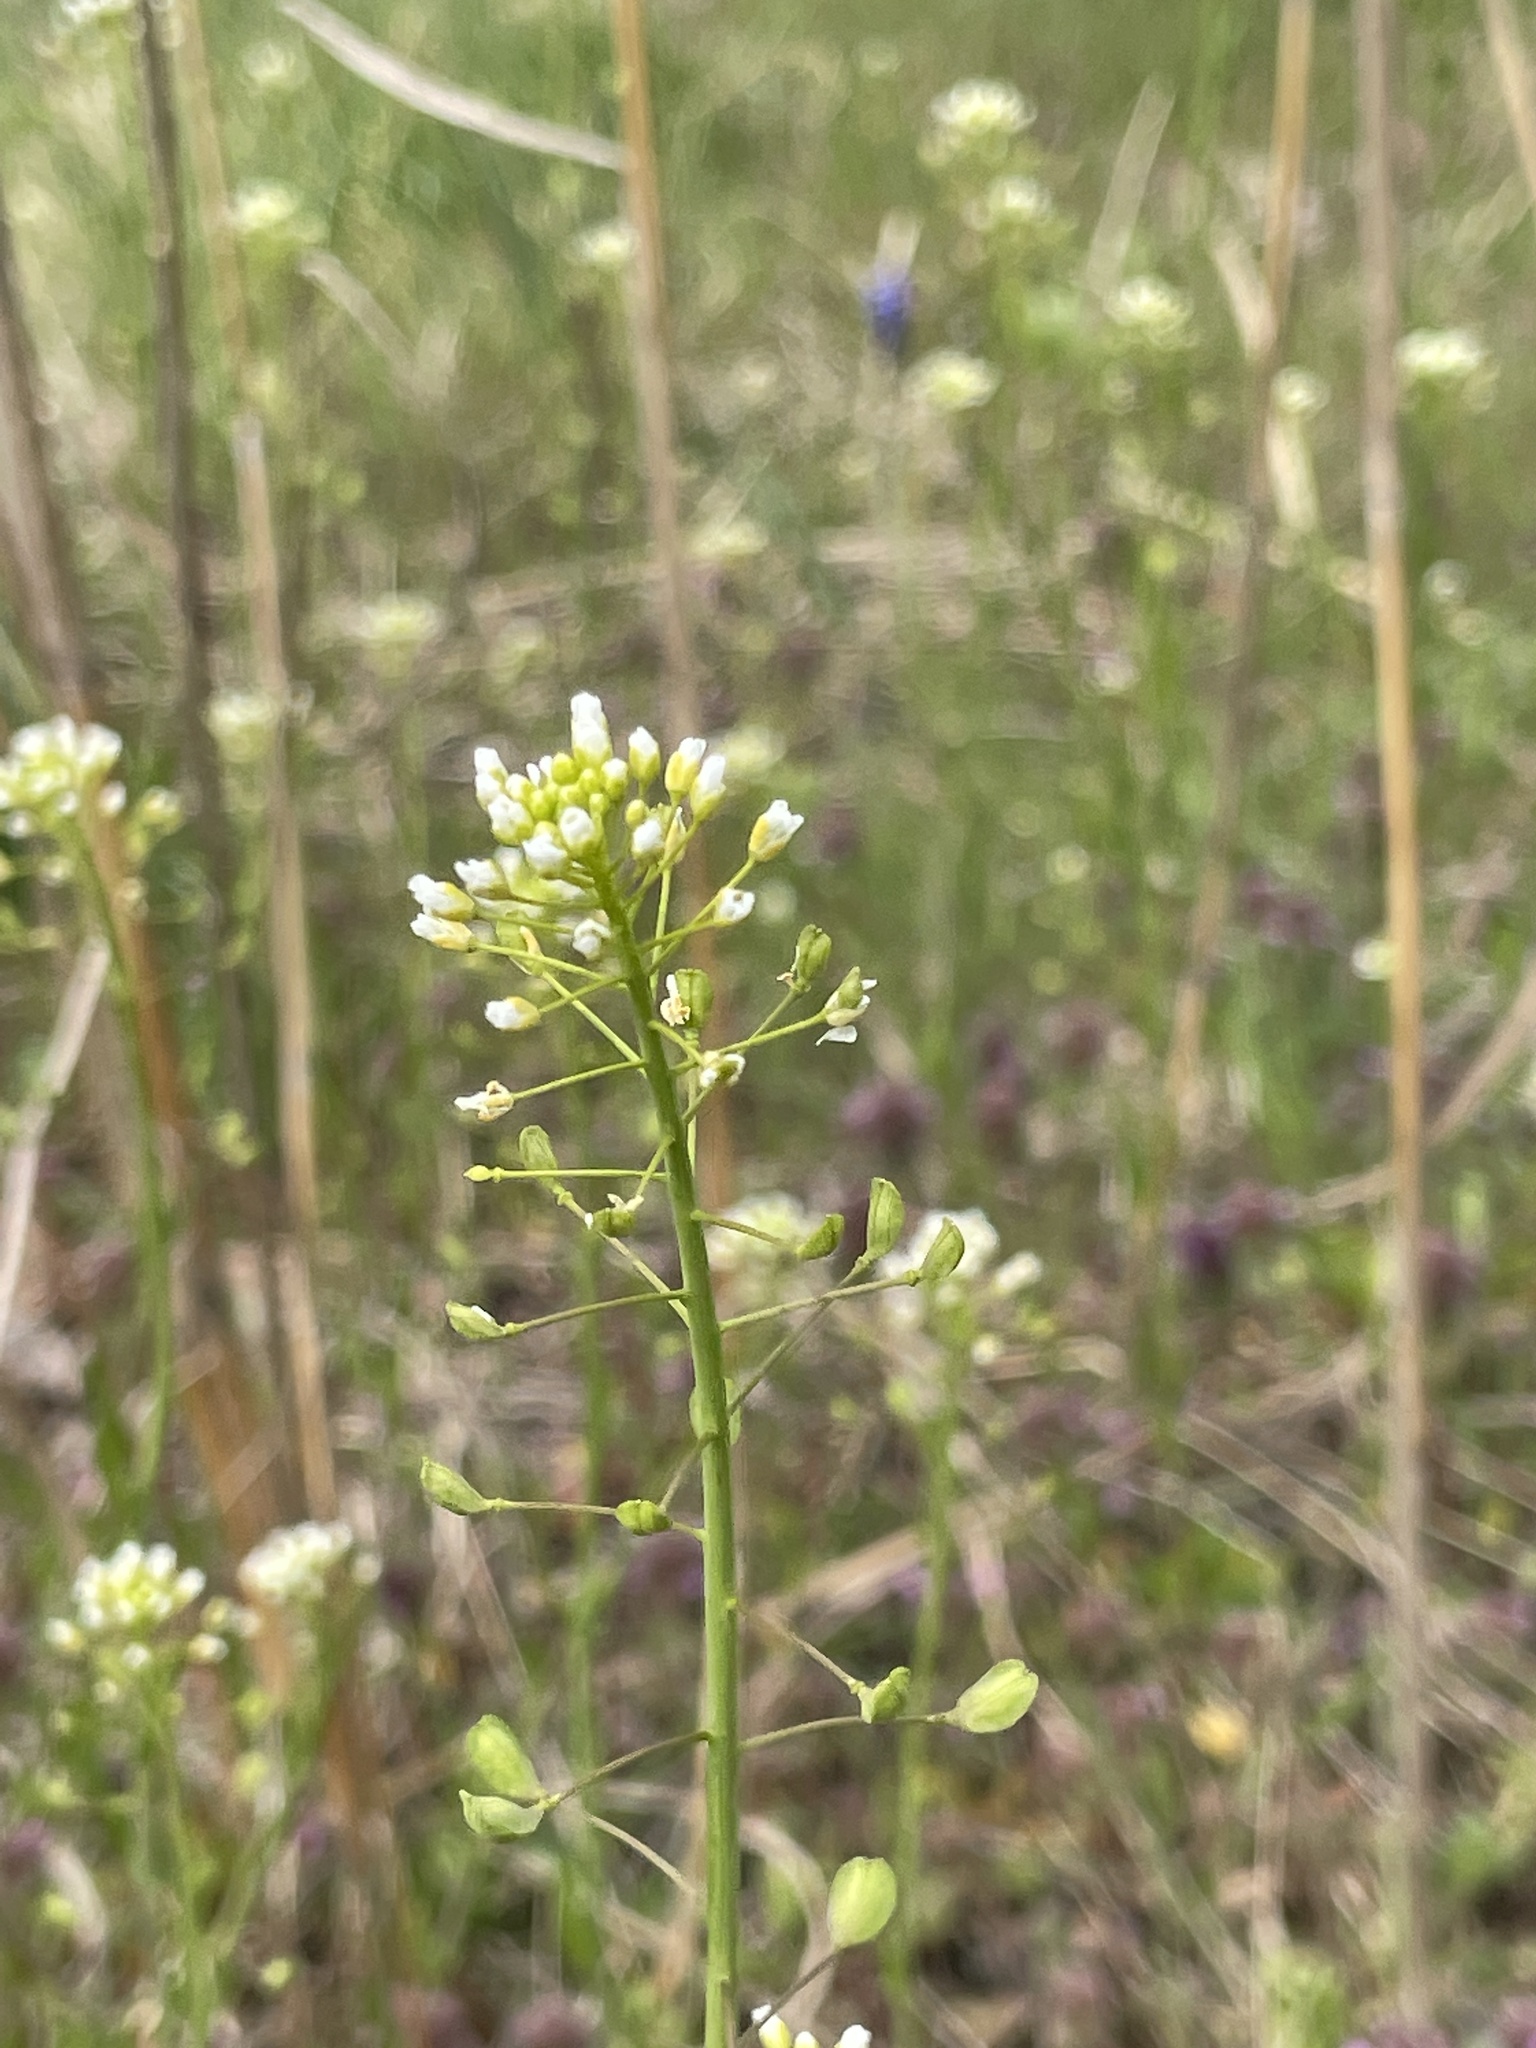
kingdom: Plantae
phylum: Tracheophyta
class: Magnoliopsida
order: Brassicales
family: Brassicaceae
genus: Mummenhoffia
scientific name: Mummenhoffia alliacea
